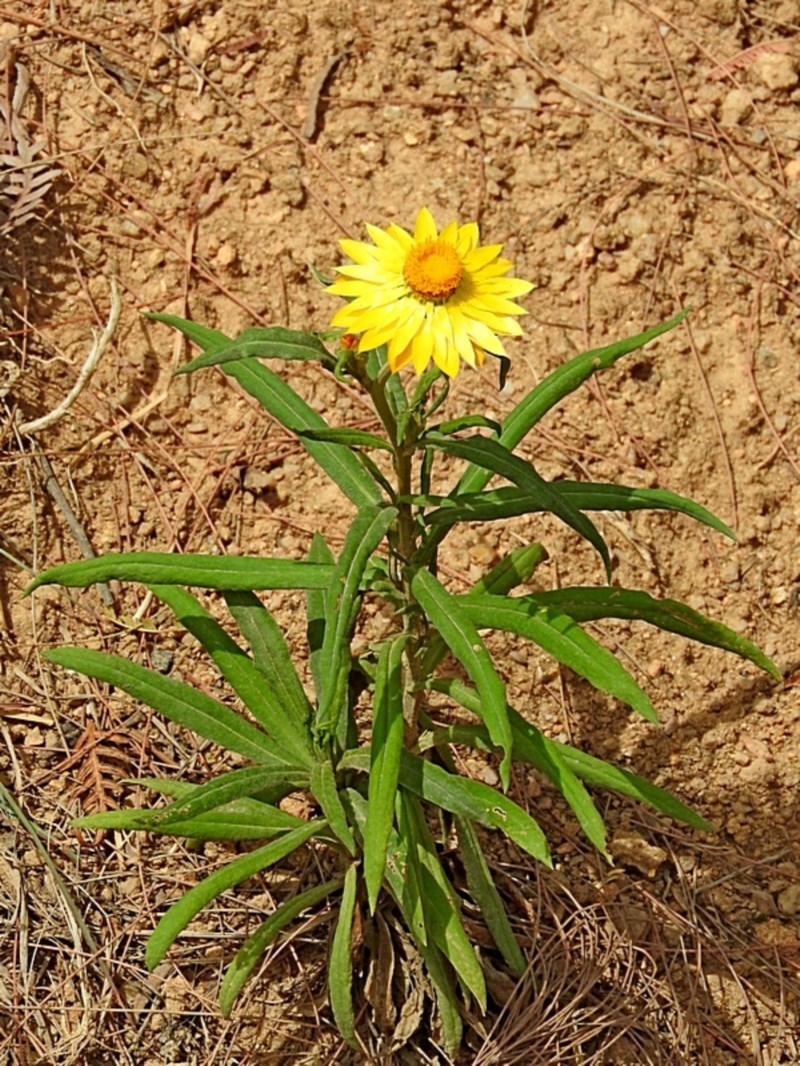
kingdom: Plantae
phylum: Tracheophyta
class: Magnoliopsida
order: Asterales
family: Asteraceae
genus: Xerochrysum
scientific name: Xerochrysum bracteatum
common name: Bracted strawflower
